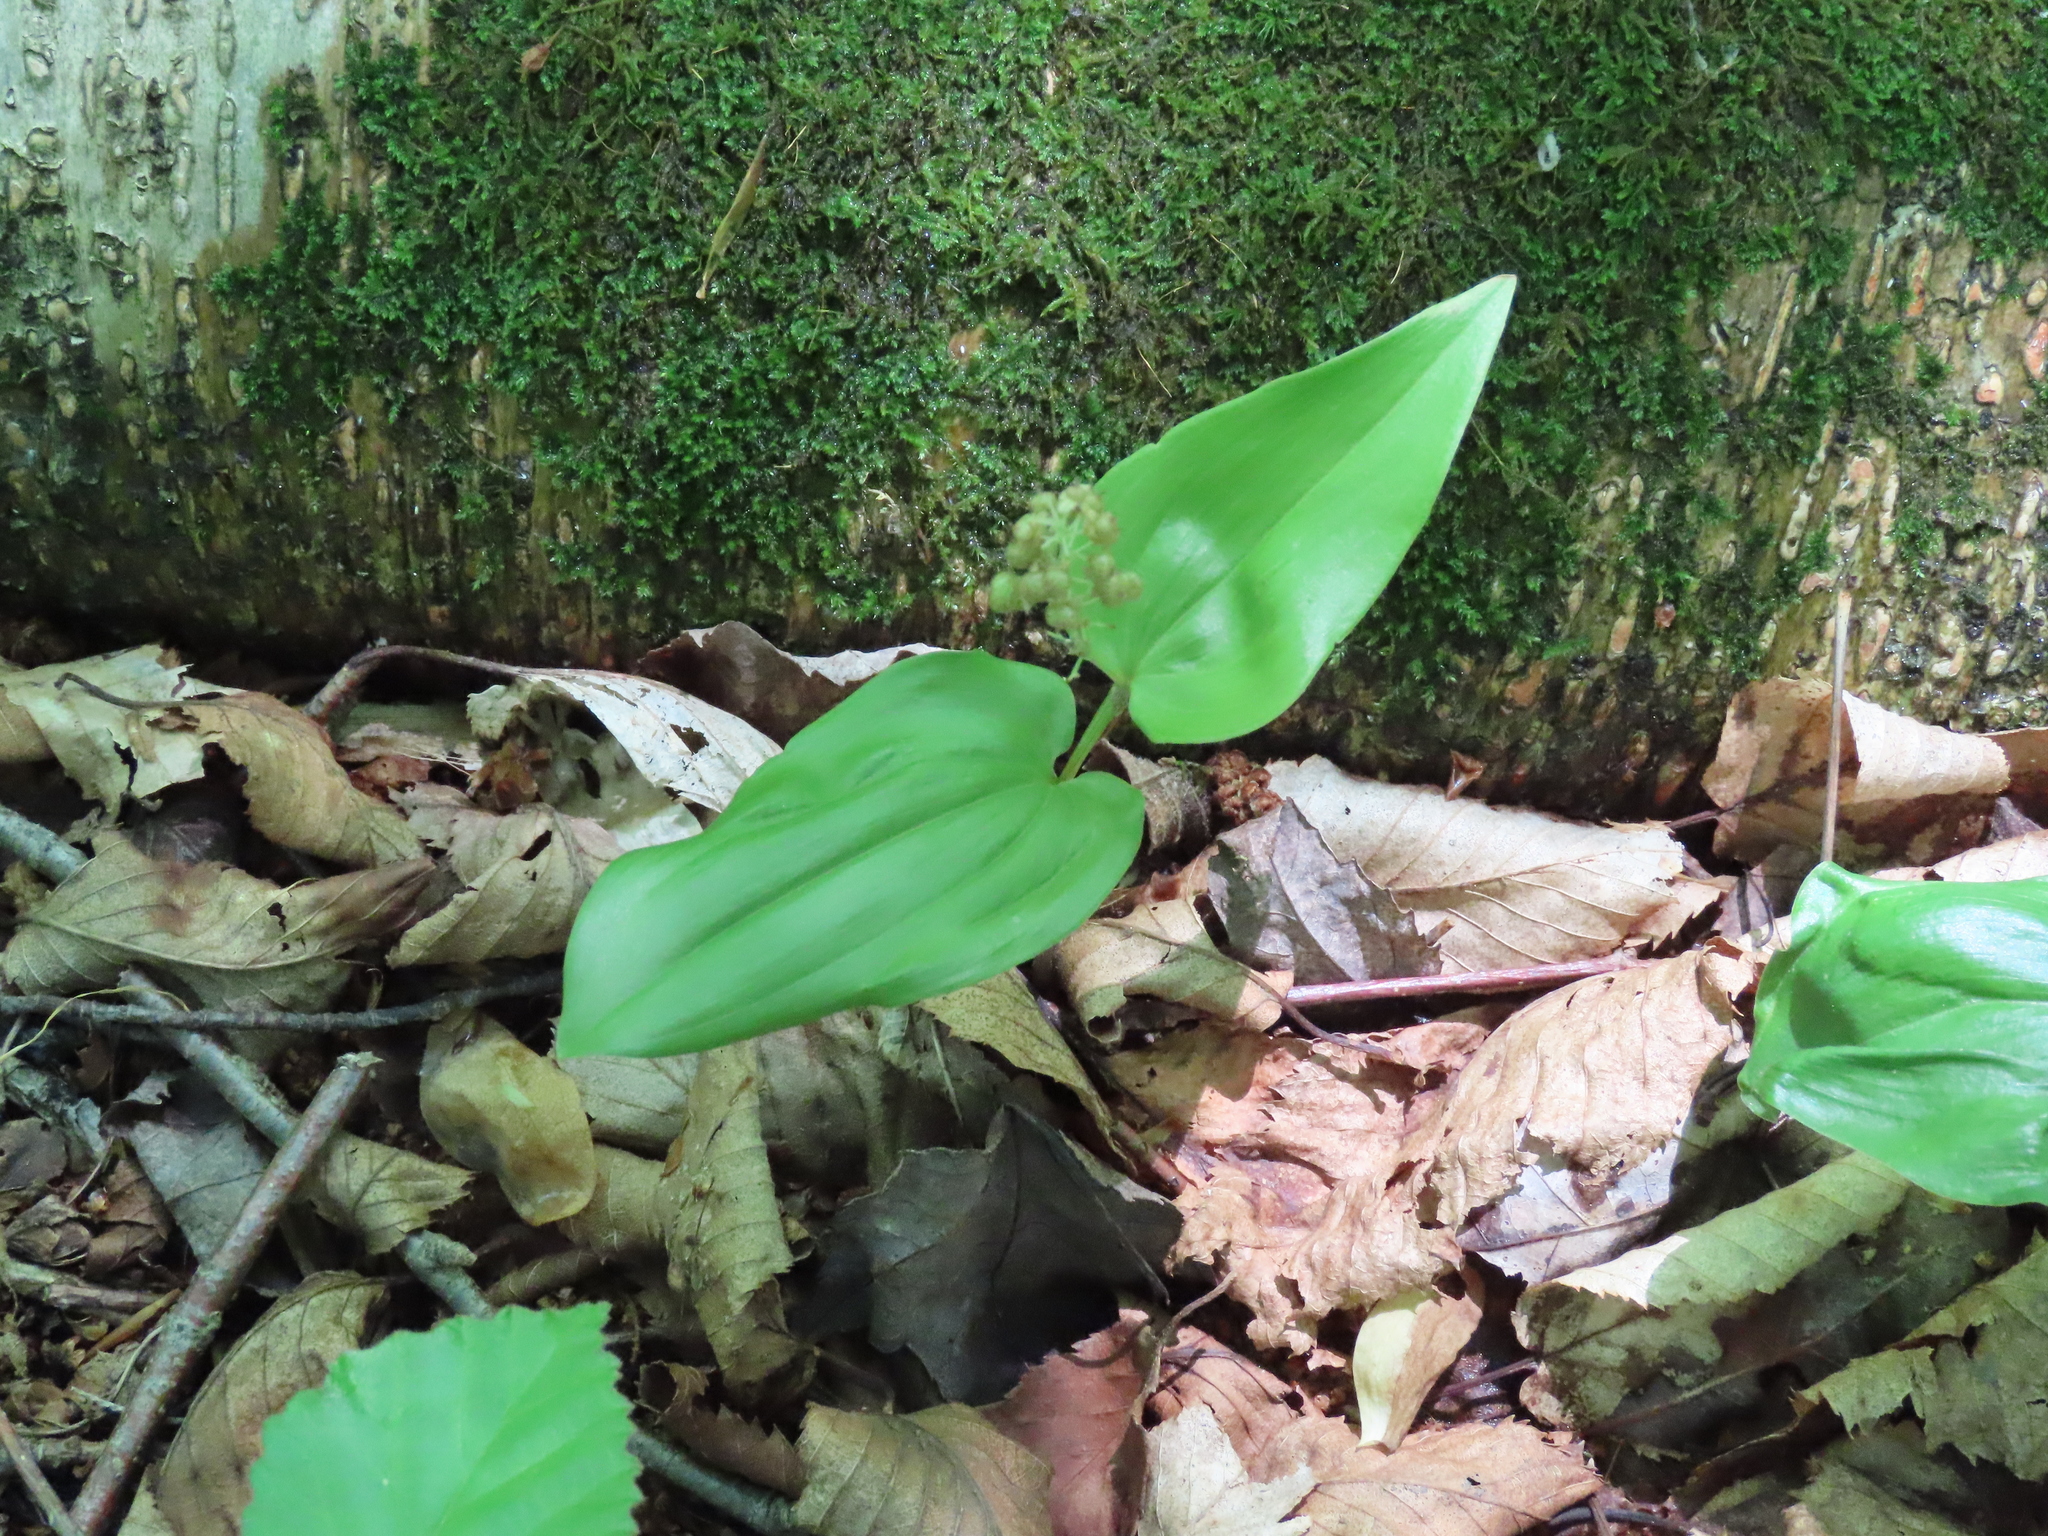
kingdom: Plantae
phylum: Tracheophyta
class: Liliopsida
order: Asparagales
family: Asparagaceae
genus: Maianthemum
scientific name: Maianthemum canadense
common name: False lily-of-the-valley
